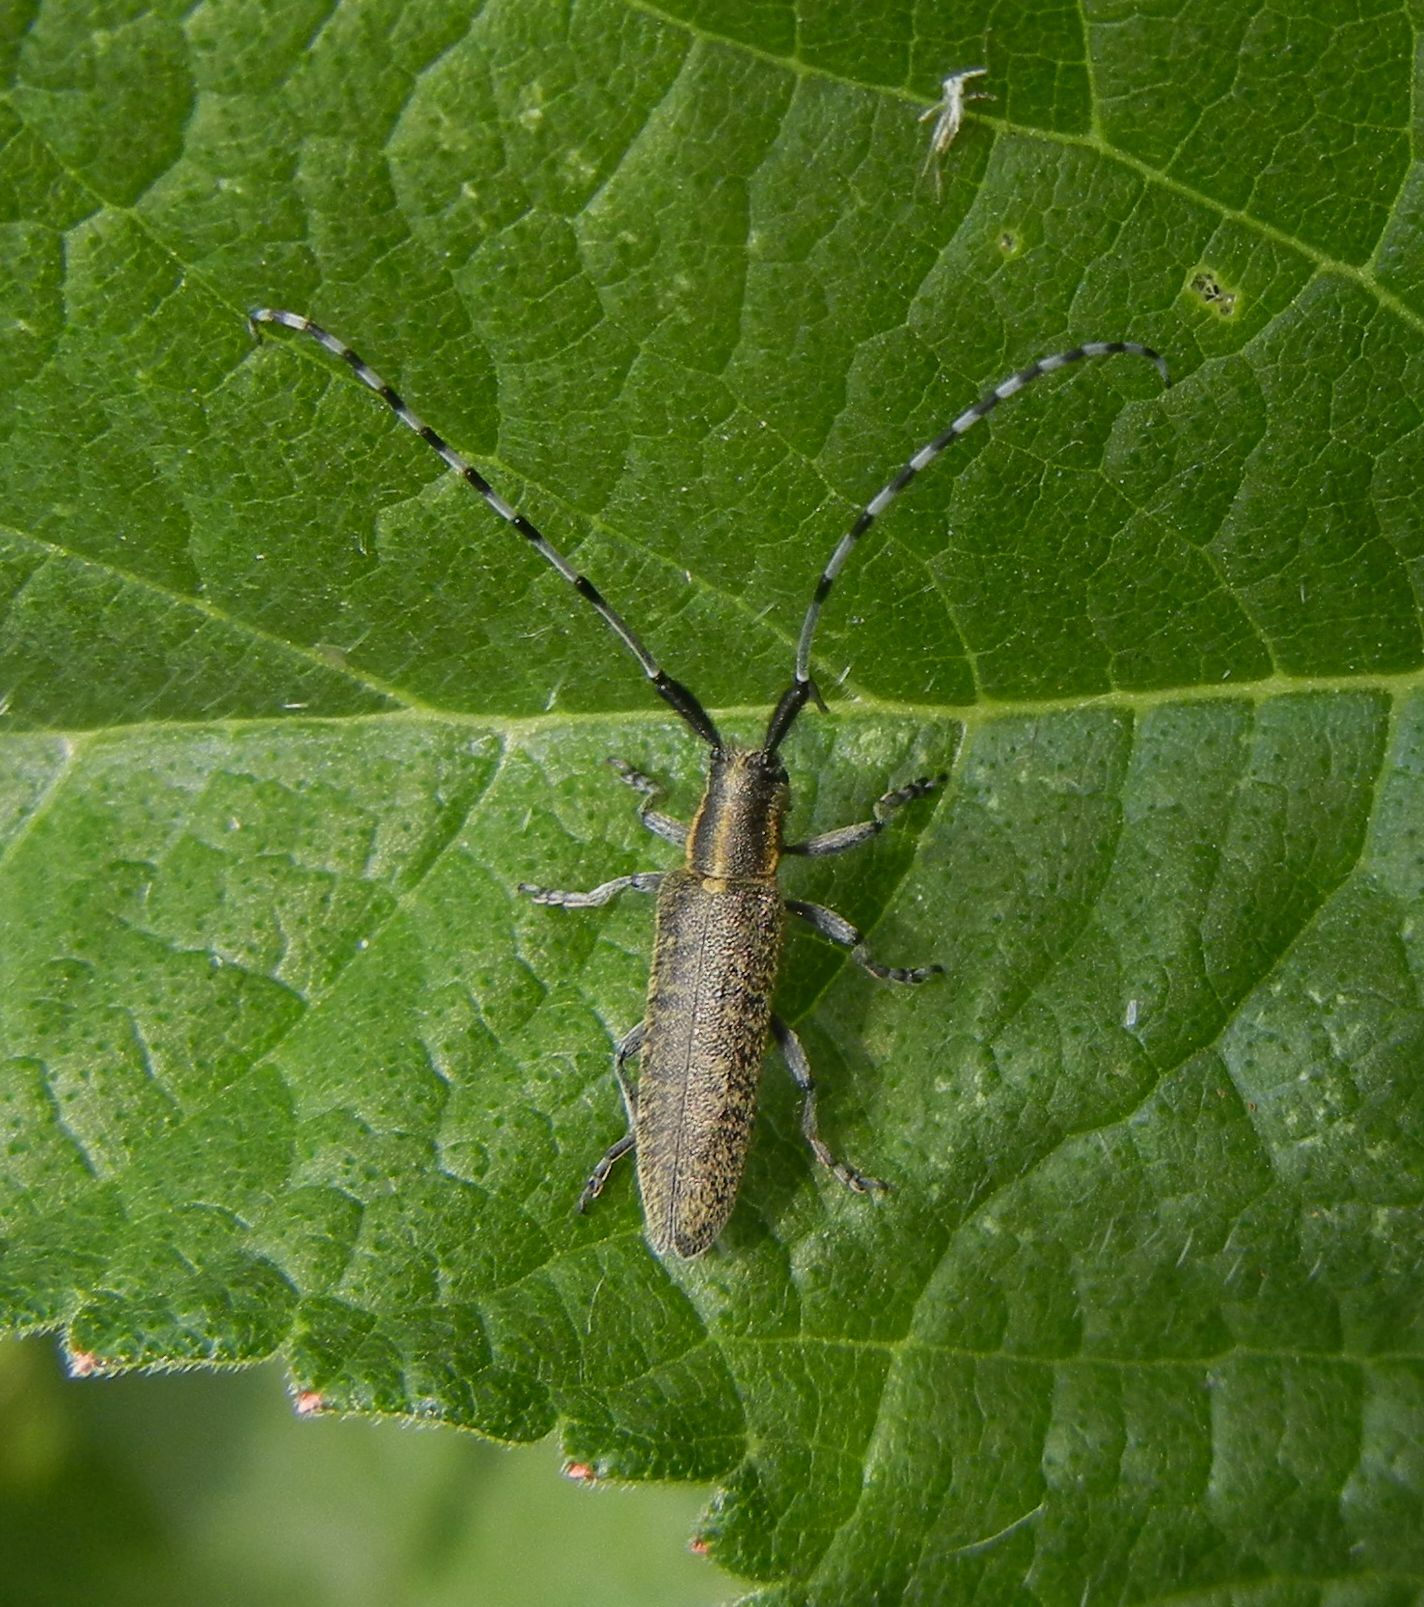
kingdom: Animalia
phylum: Arthropoda
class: Insecta
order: Coleoptera
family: Cerambycidae
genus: Agapanthia
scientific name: Agapanthia villosoviridescens
